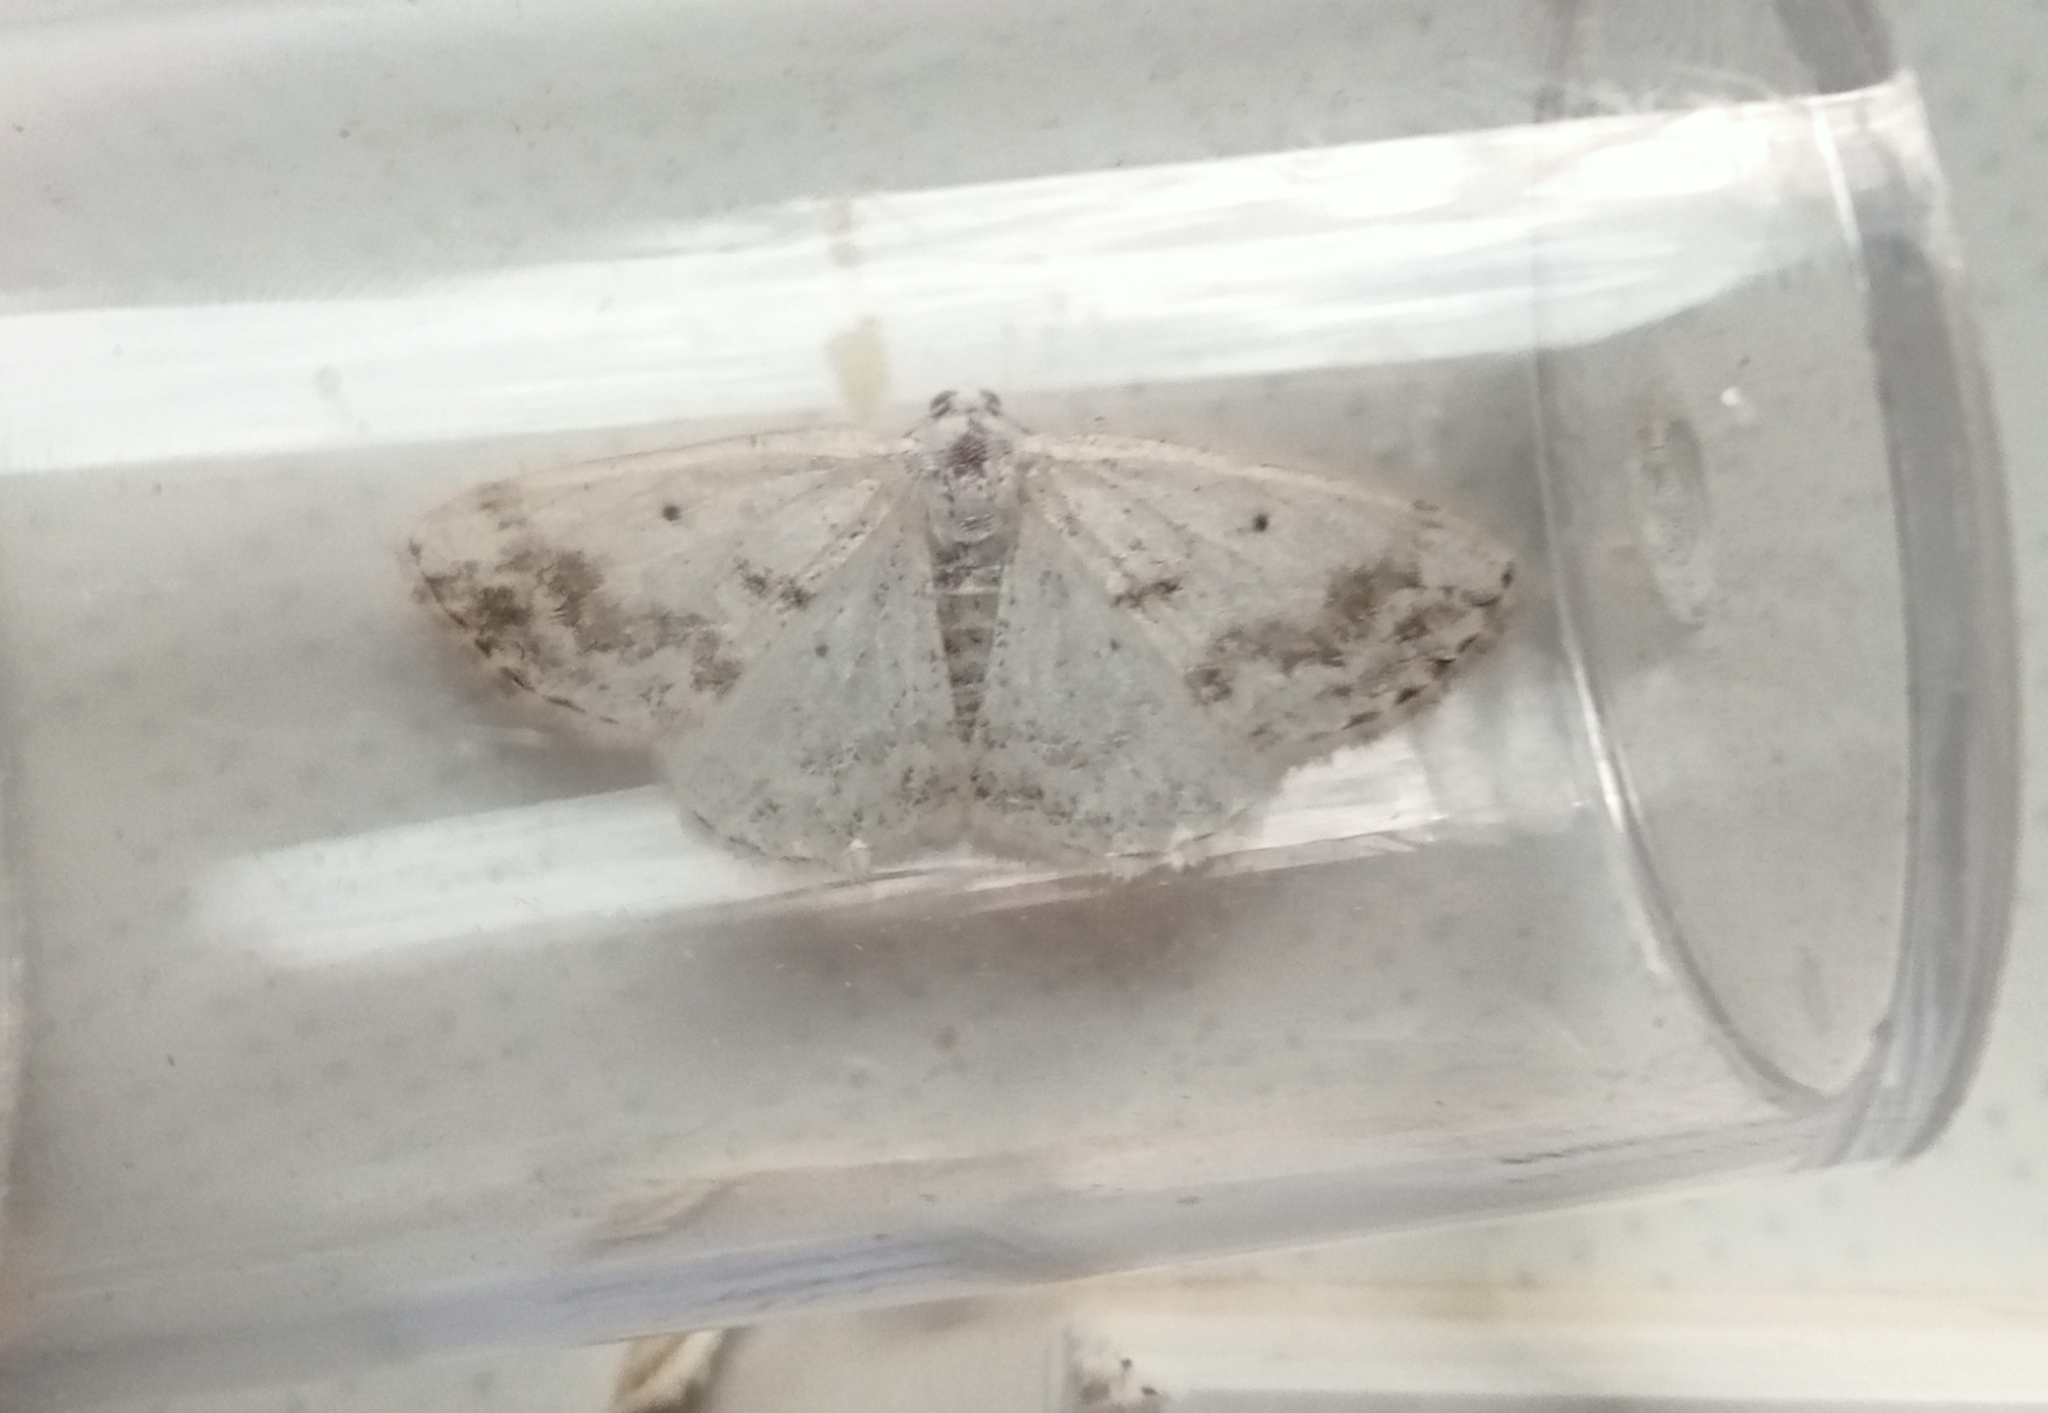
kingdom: Animalia
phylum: Arthropoda
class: Insecta
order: Lepidoptera
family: Geometridae
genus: Lomographa
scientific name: Lomographa temerata
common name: Clouded silver
